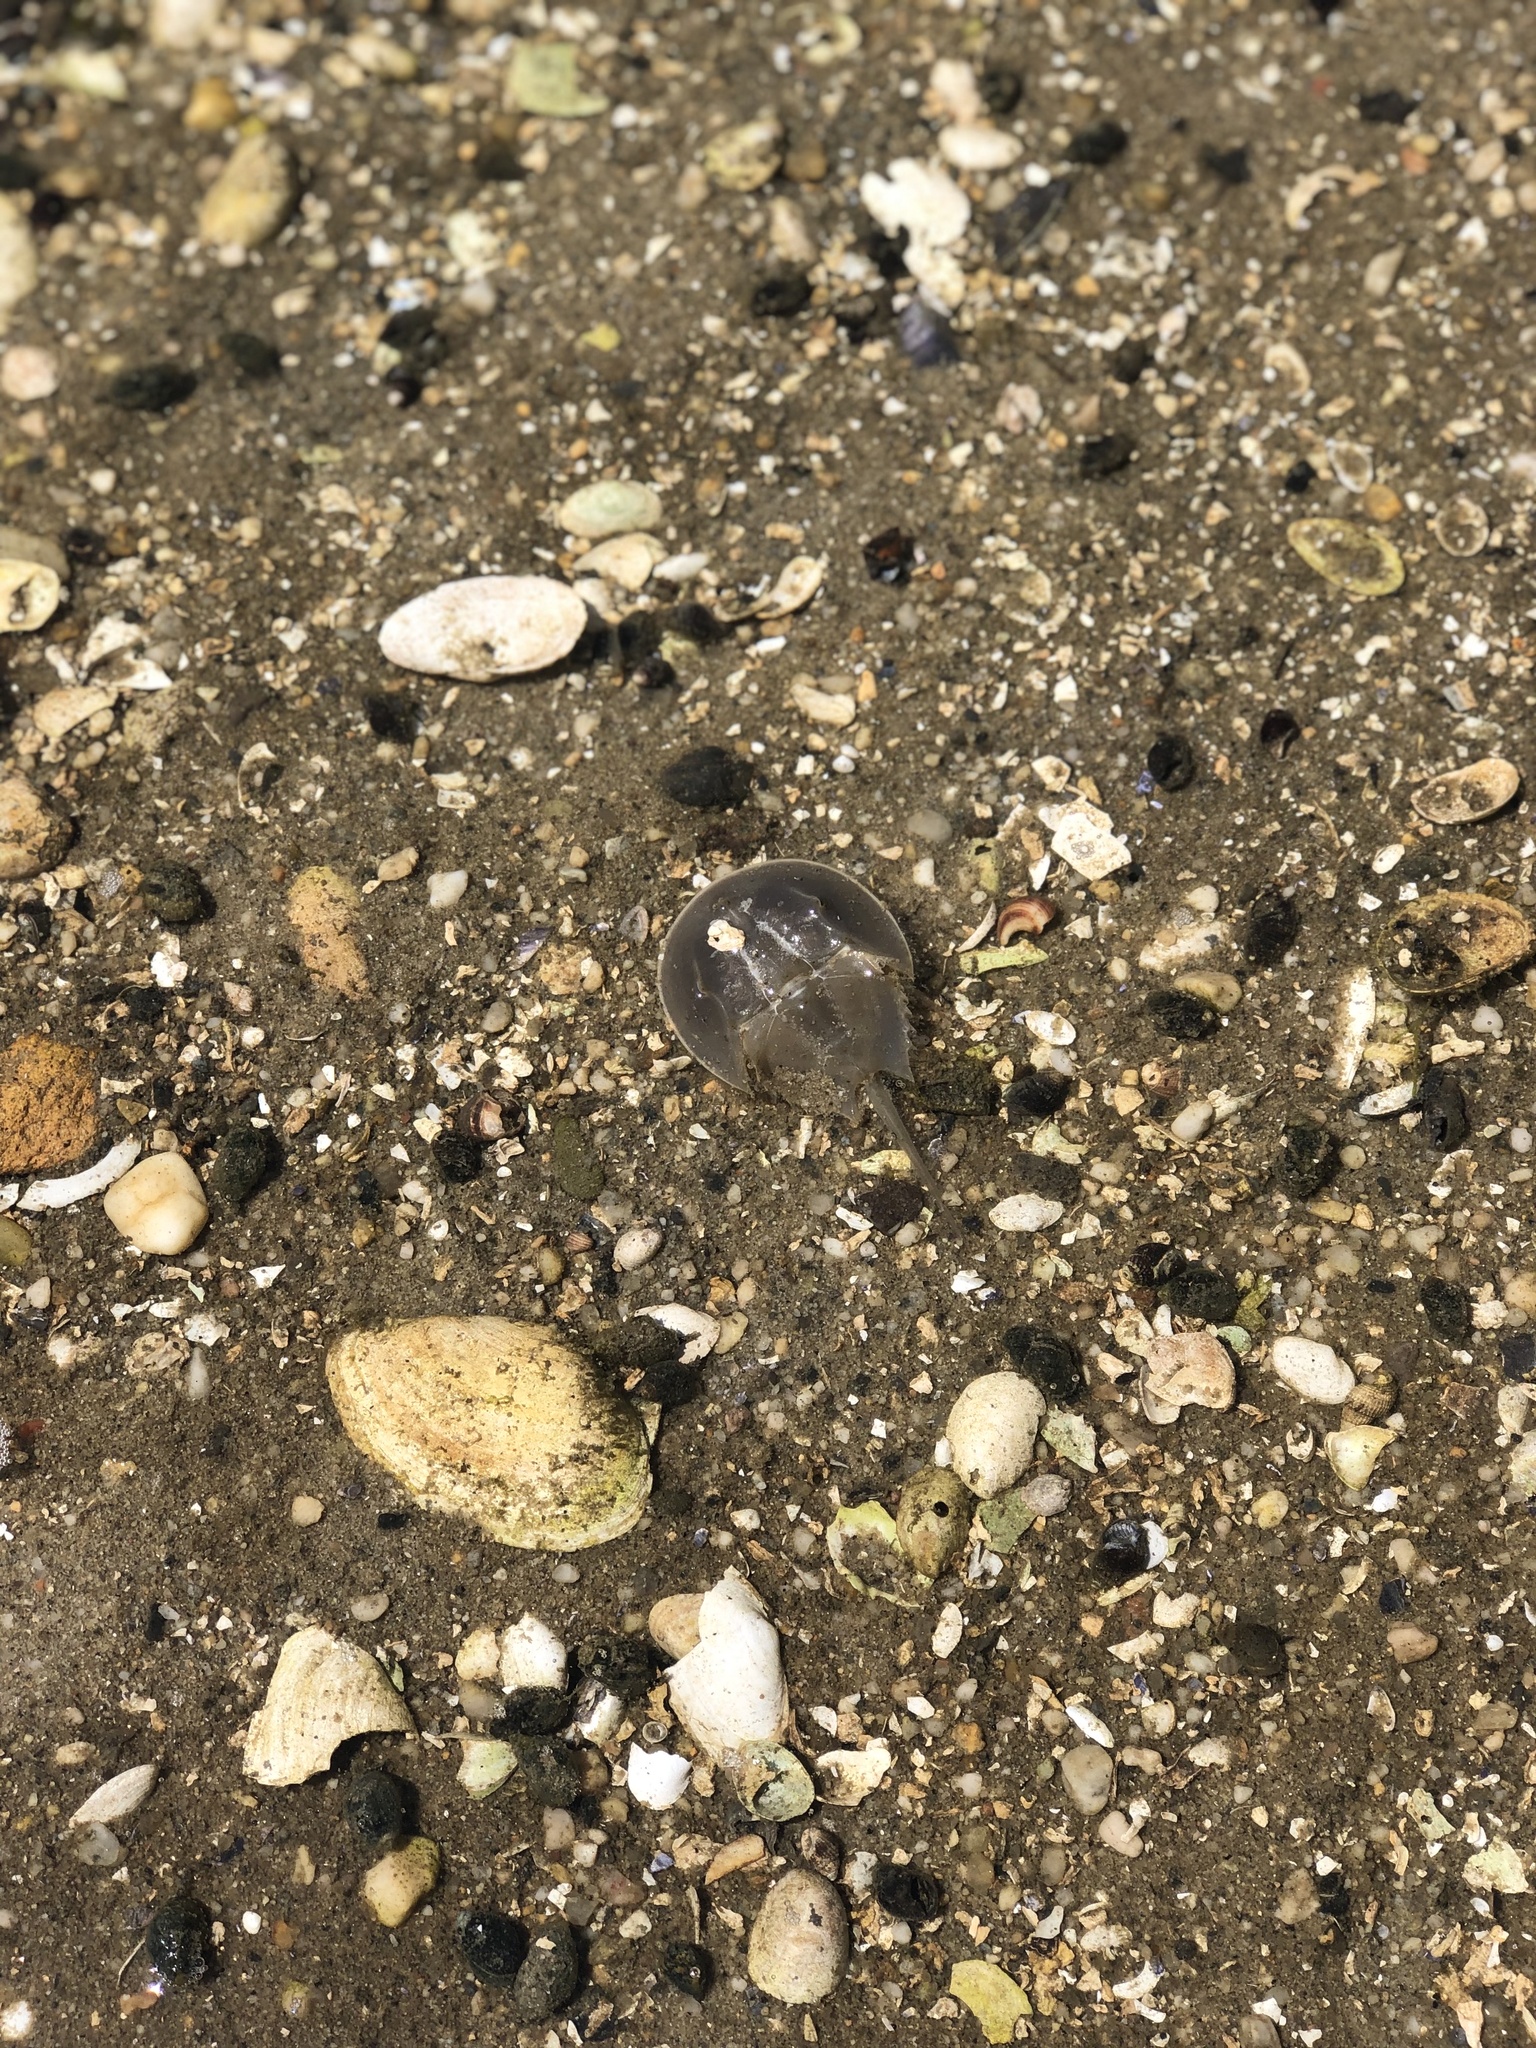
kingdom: Animalia
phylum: Arthropoda
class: Merostomata
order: Xiphosurida
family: Limulidae
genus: Limulus
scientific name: Limulus polyphemus
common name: Horseshoe crab
